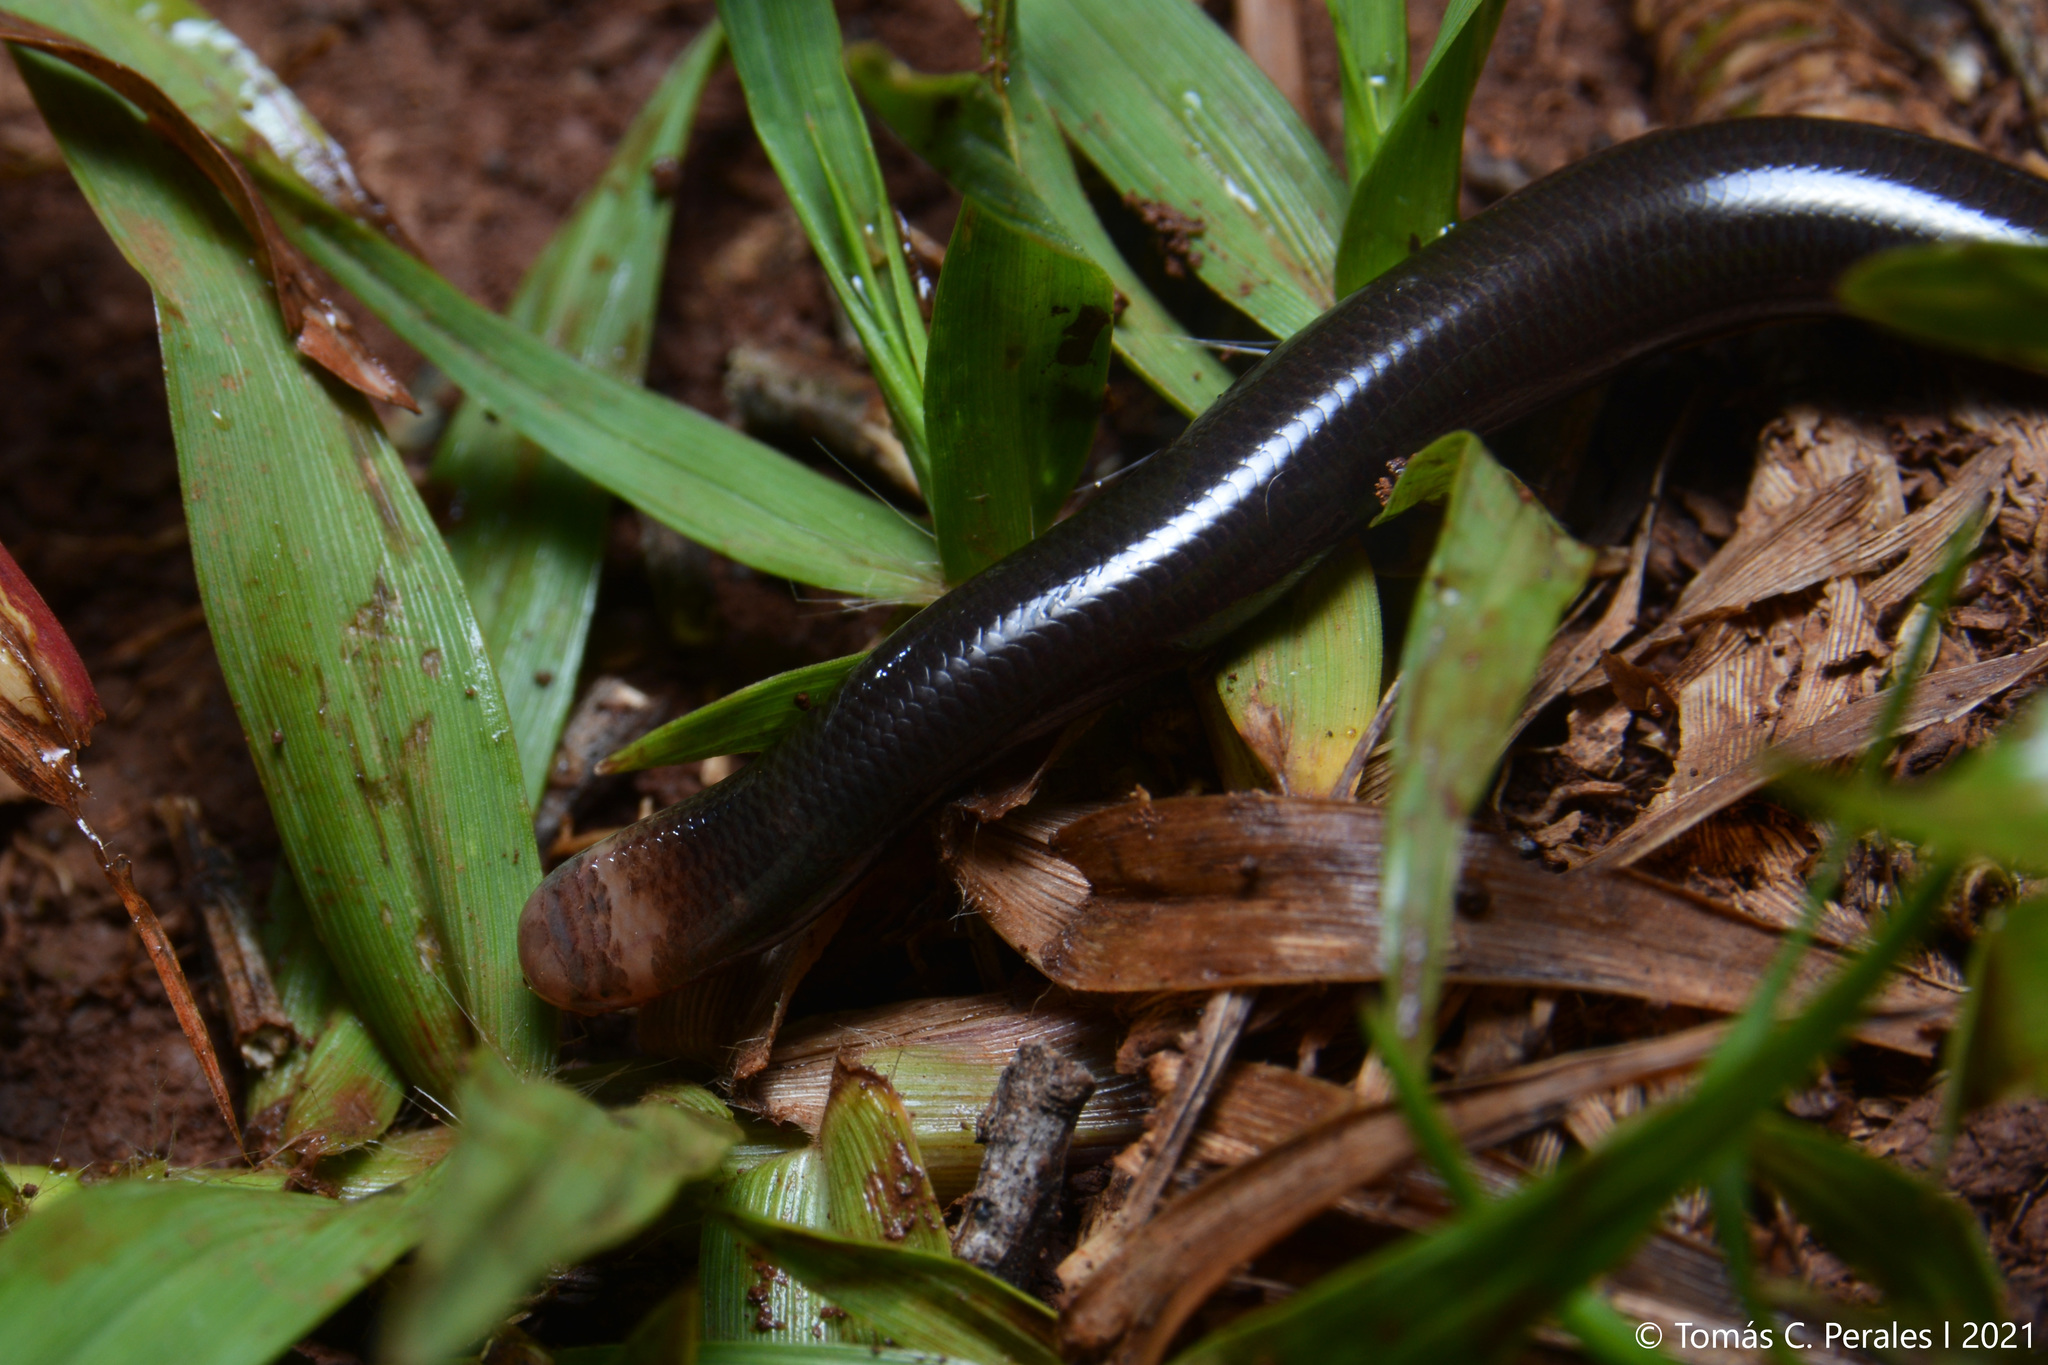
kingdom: Animalia
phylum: Chordata
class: Squamata
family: Anomalepididae
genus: Liotyphlops
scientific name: Liotyphlops ternetzii
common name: Ternetz's blind snake
